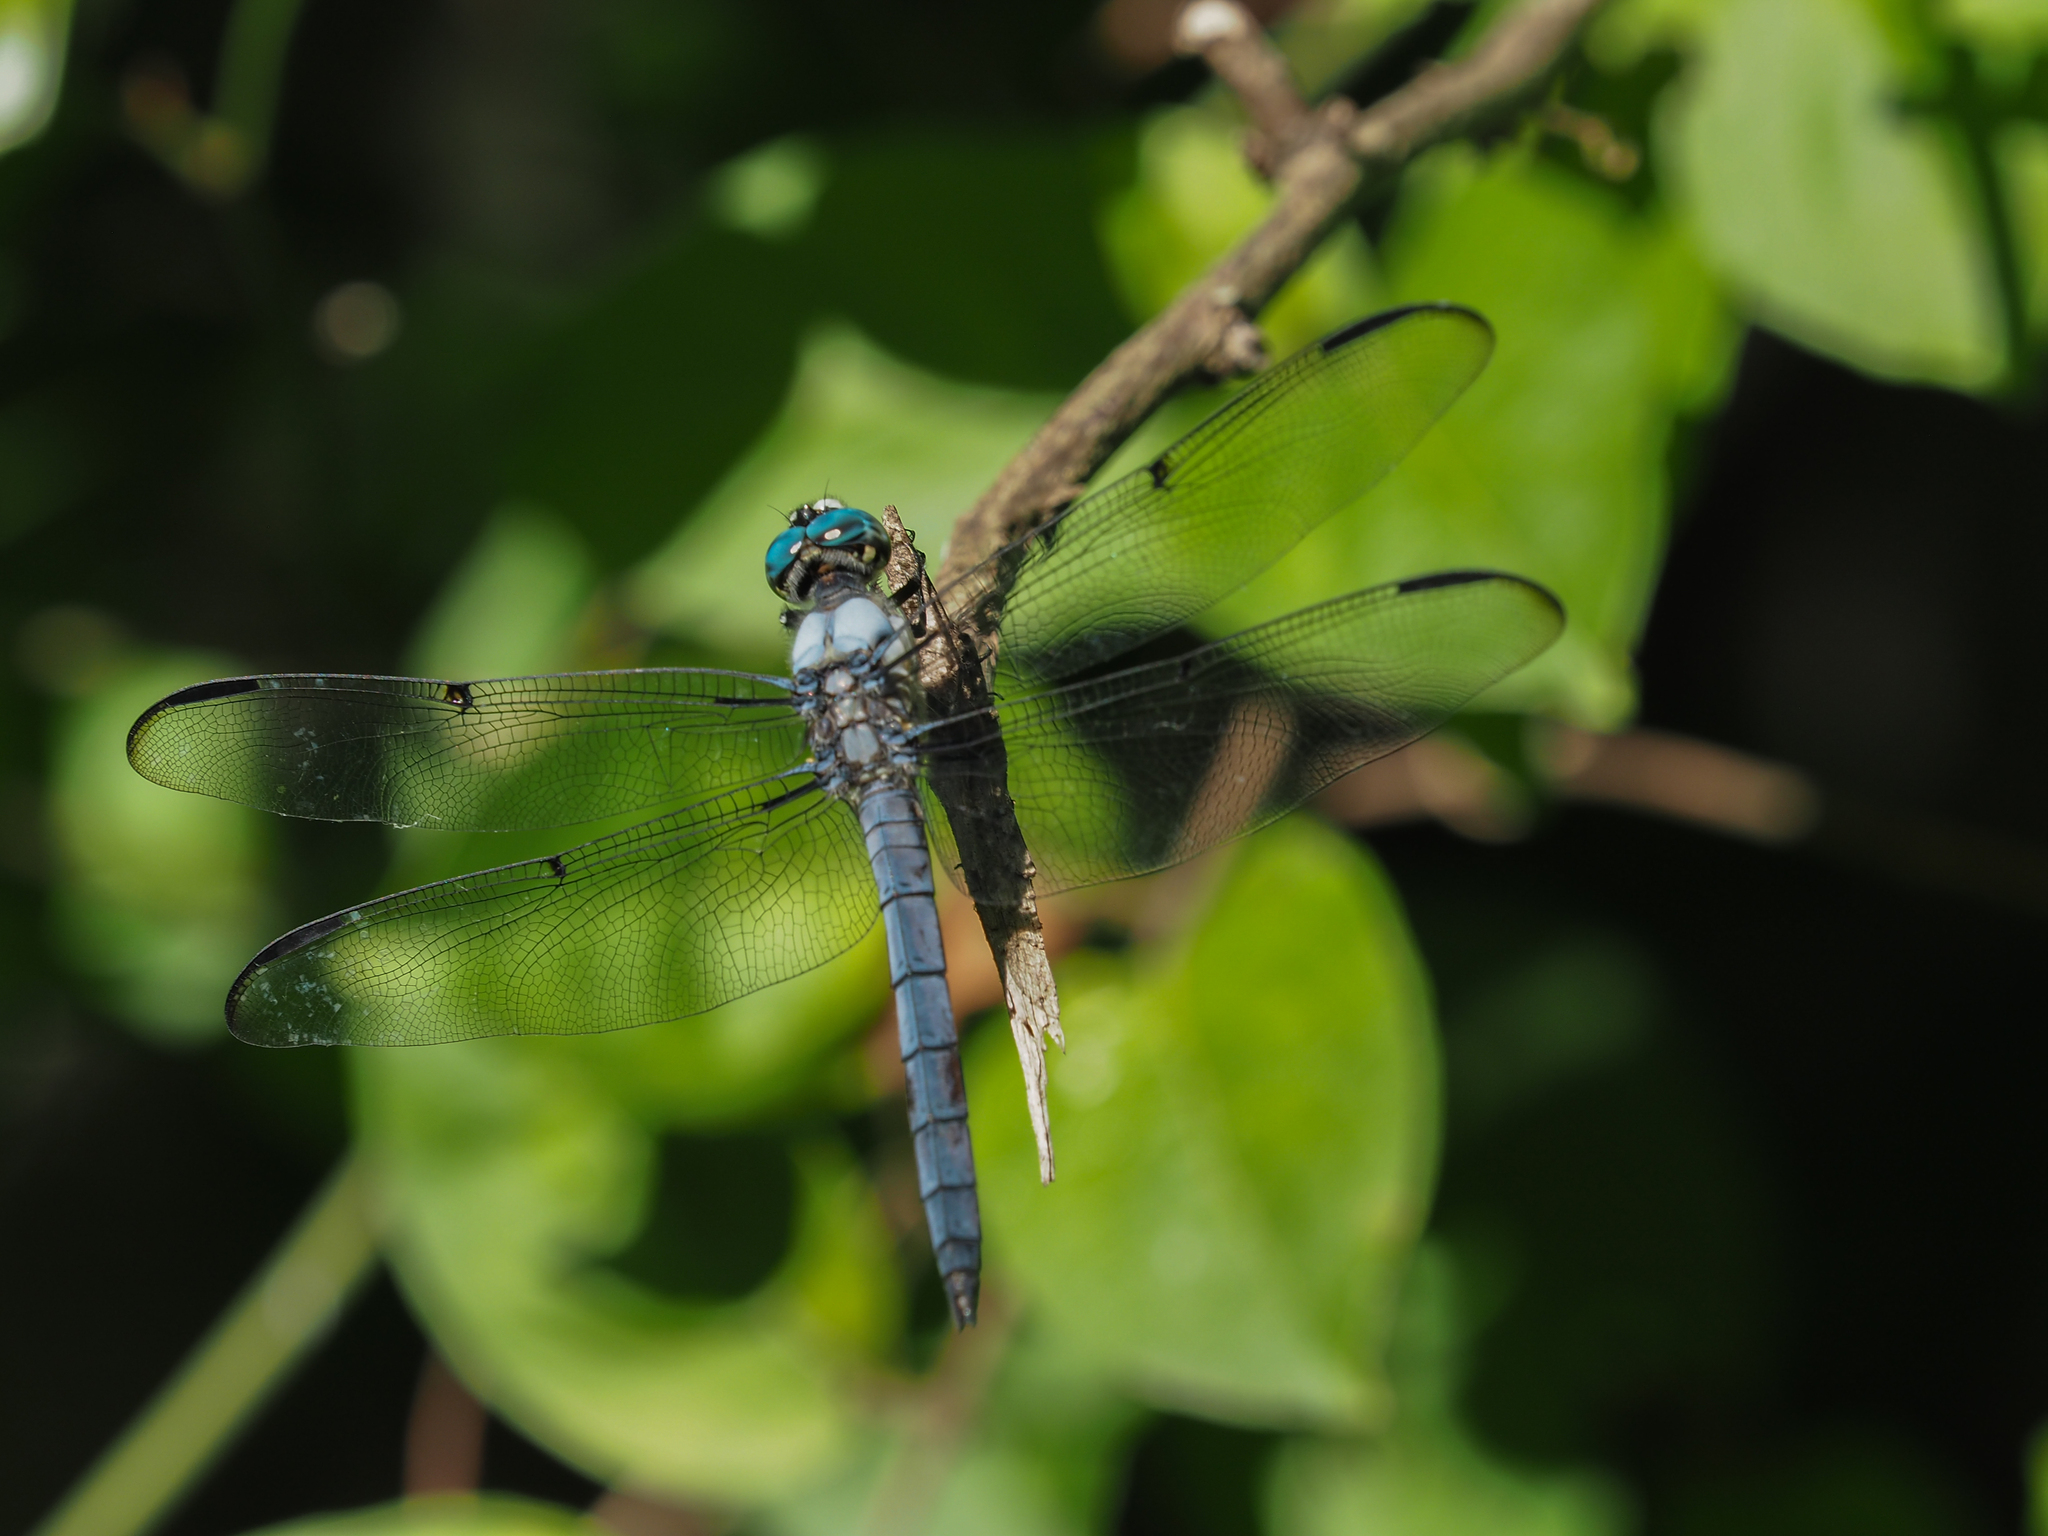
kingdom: Animalia
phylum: Arthropoda
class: Insecta
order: Odonata
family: Libellulidae
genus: Libellula
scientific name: Libellula vibrans
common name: Great blue skimmer
